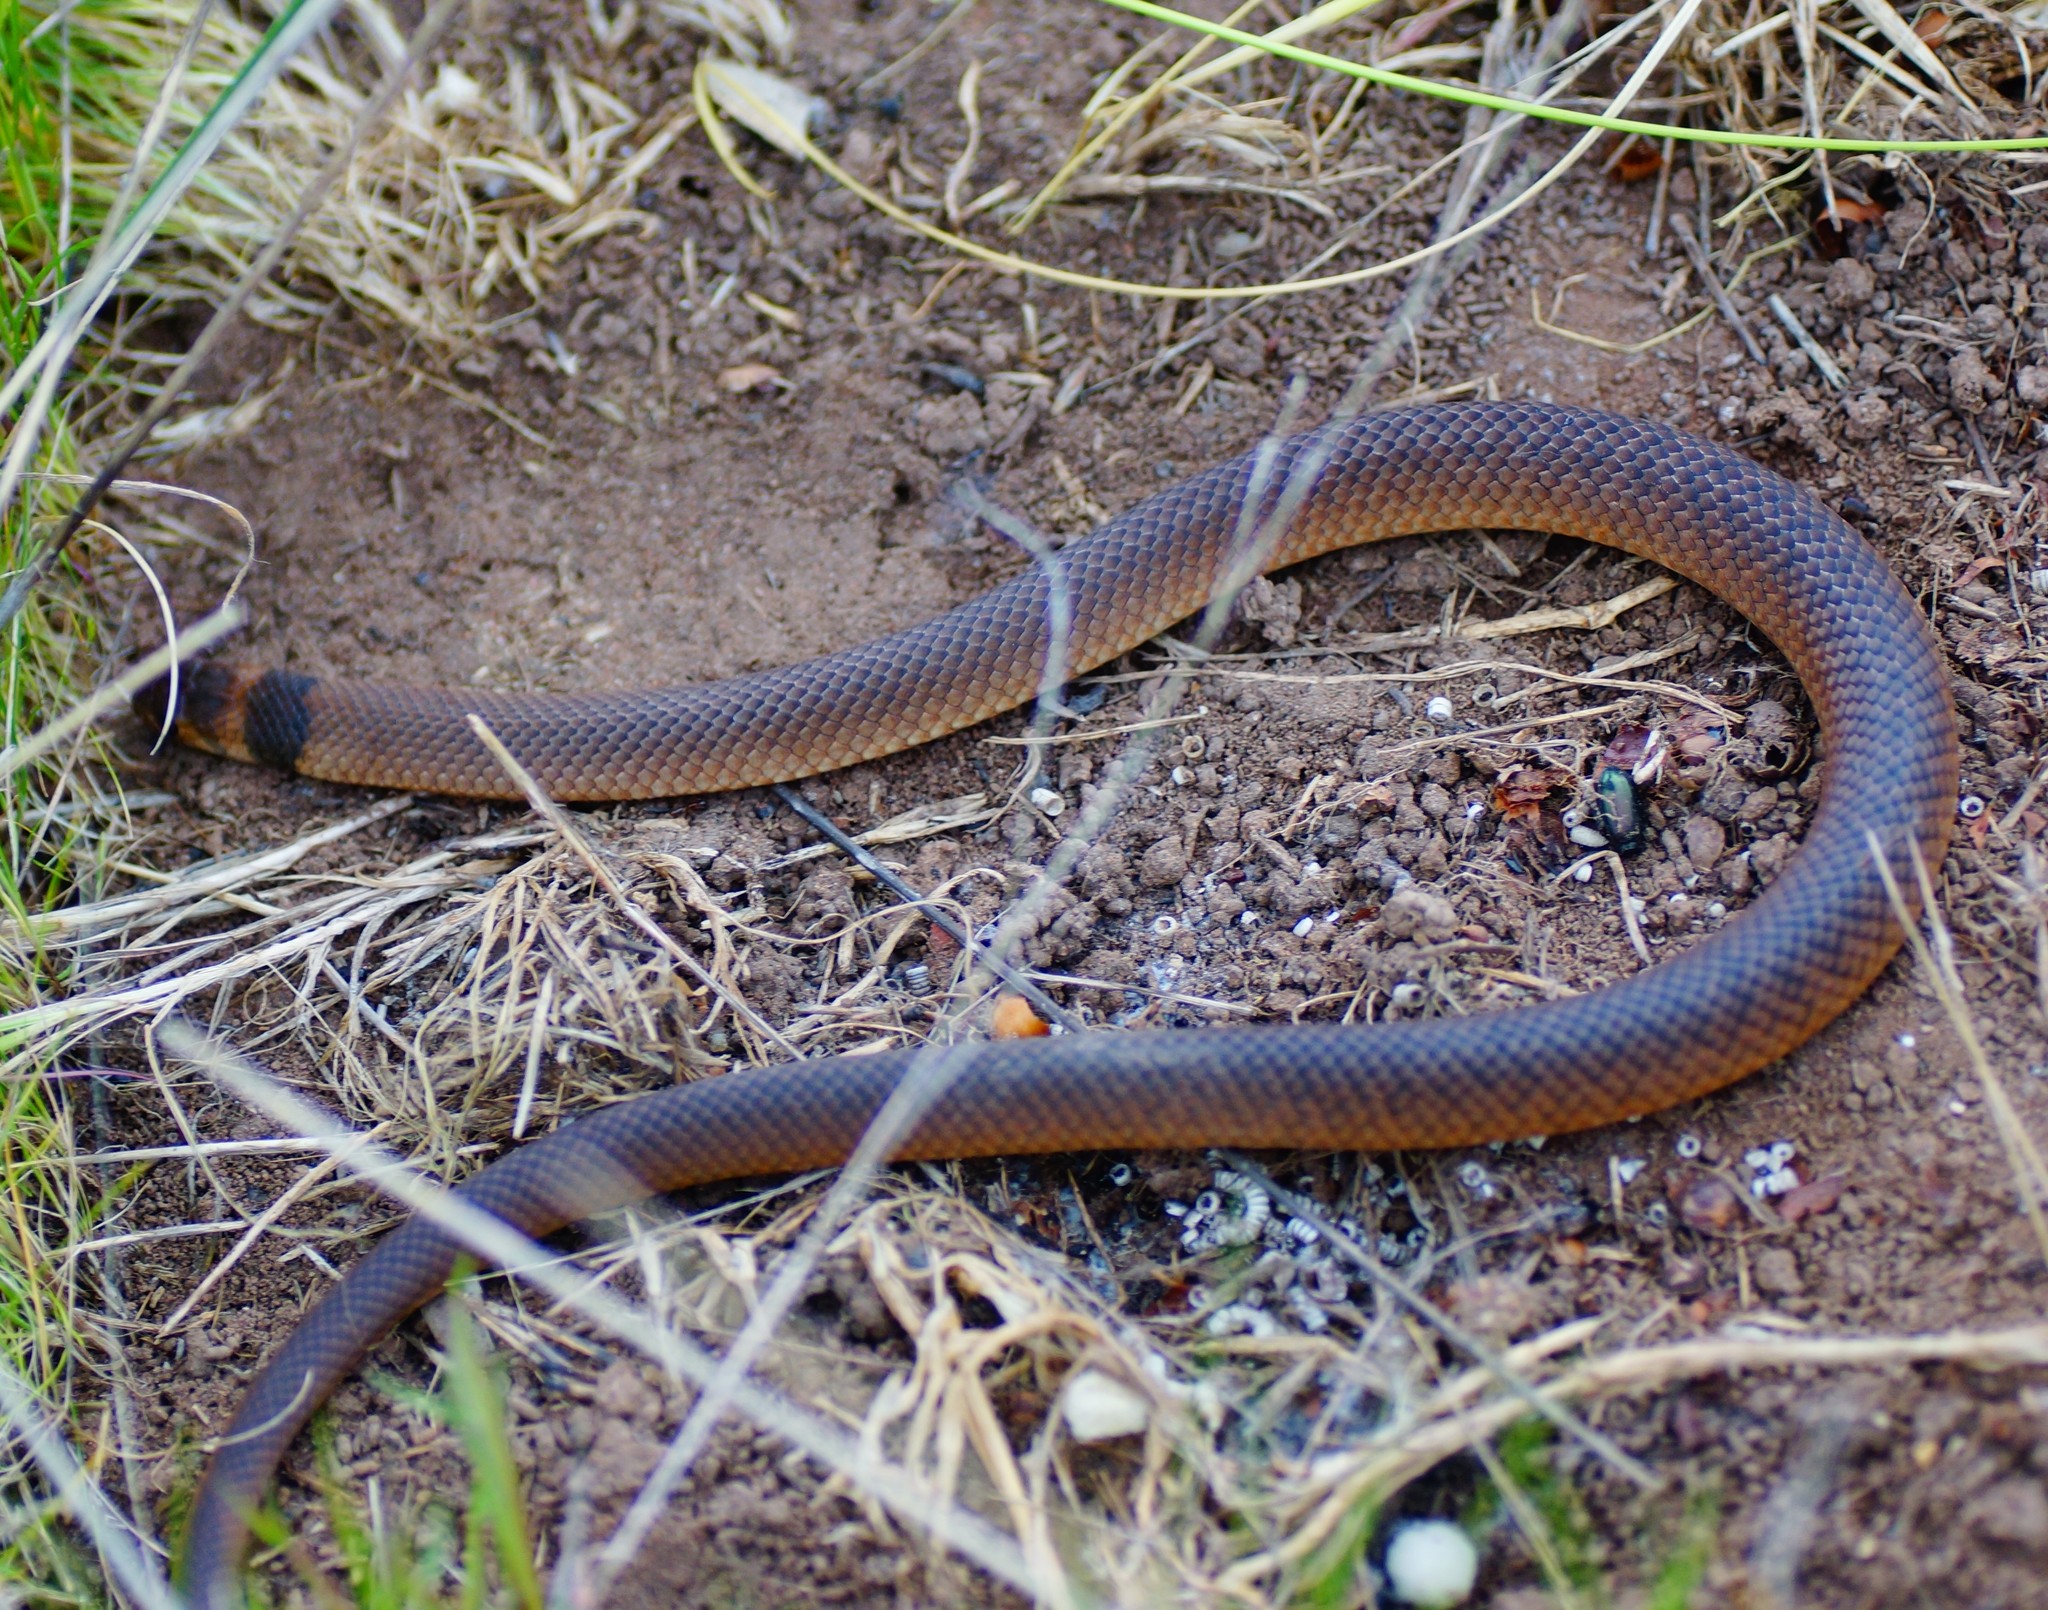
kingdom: Animalia
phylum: Chordata
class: Squamata
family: Elapidae
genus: Pseudonaja
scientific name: Pseudonaja textilis
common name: Eastern brown snake
